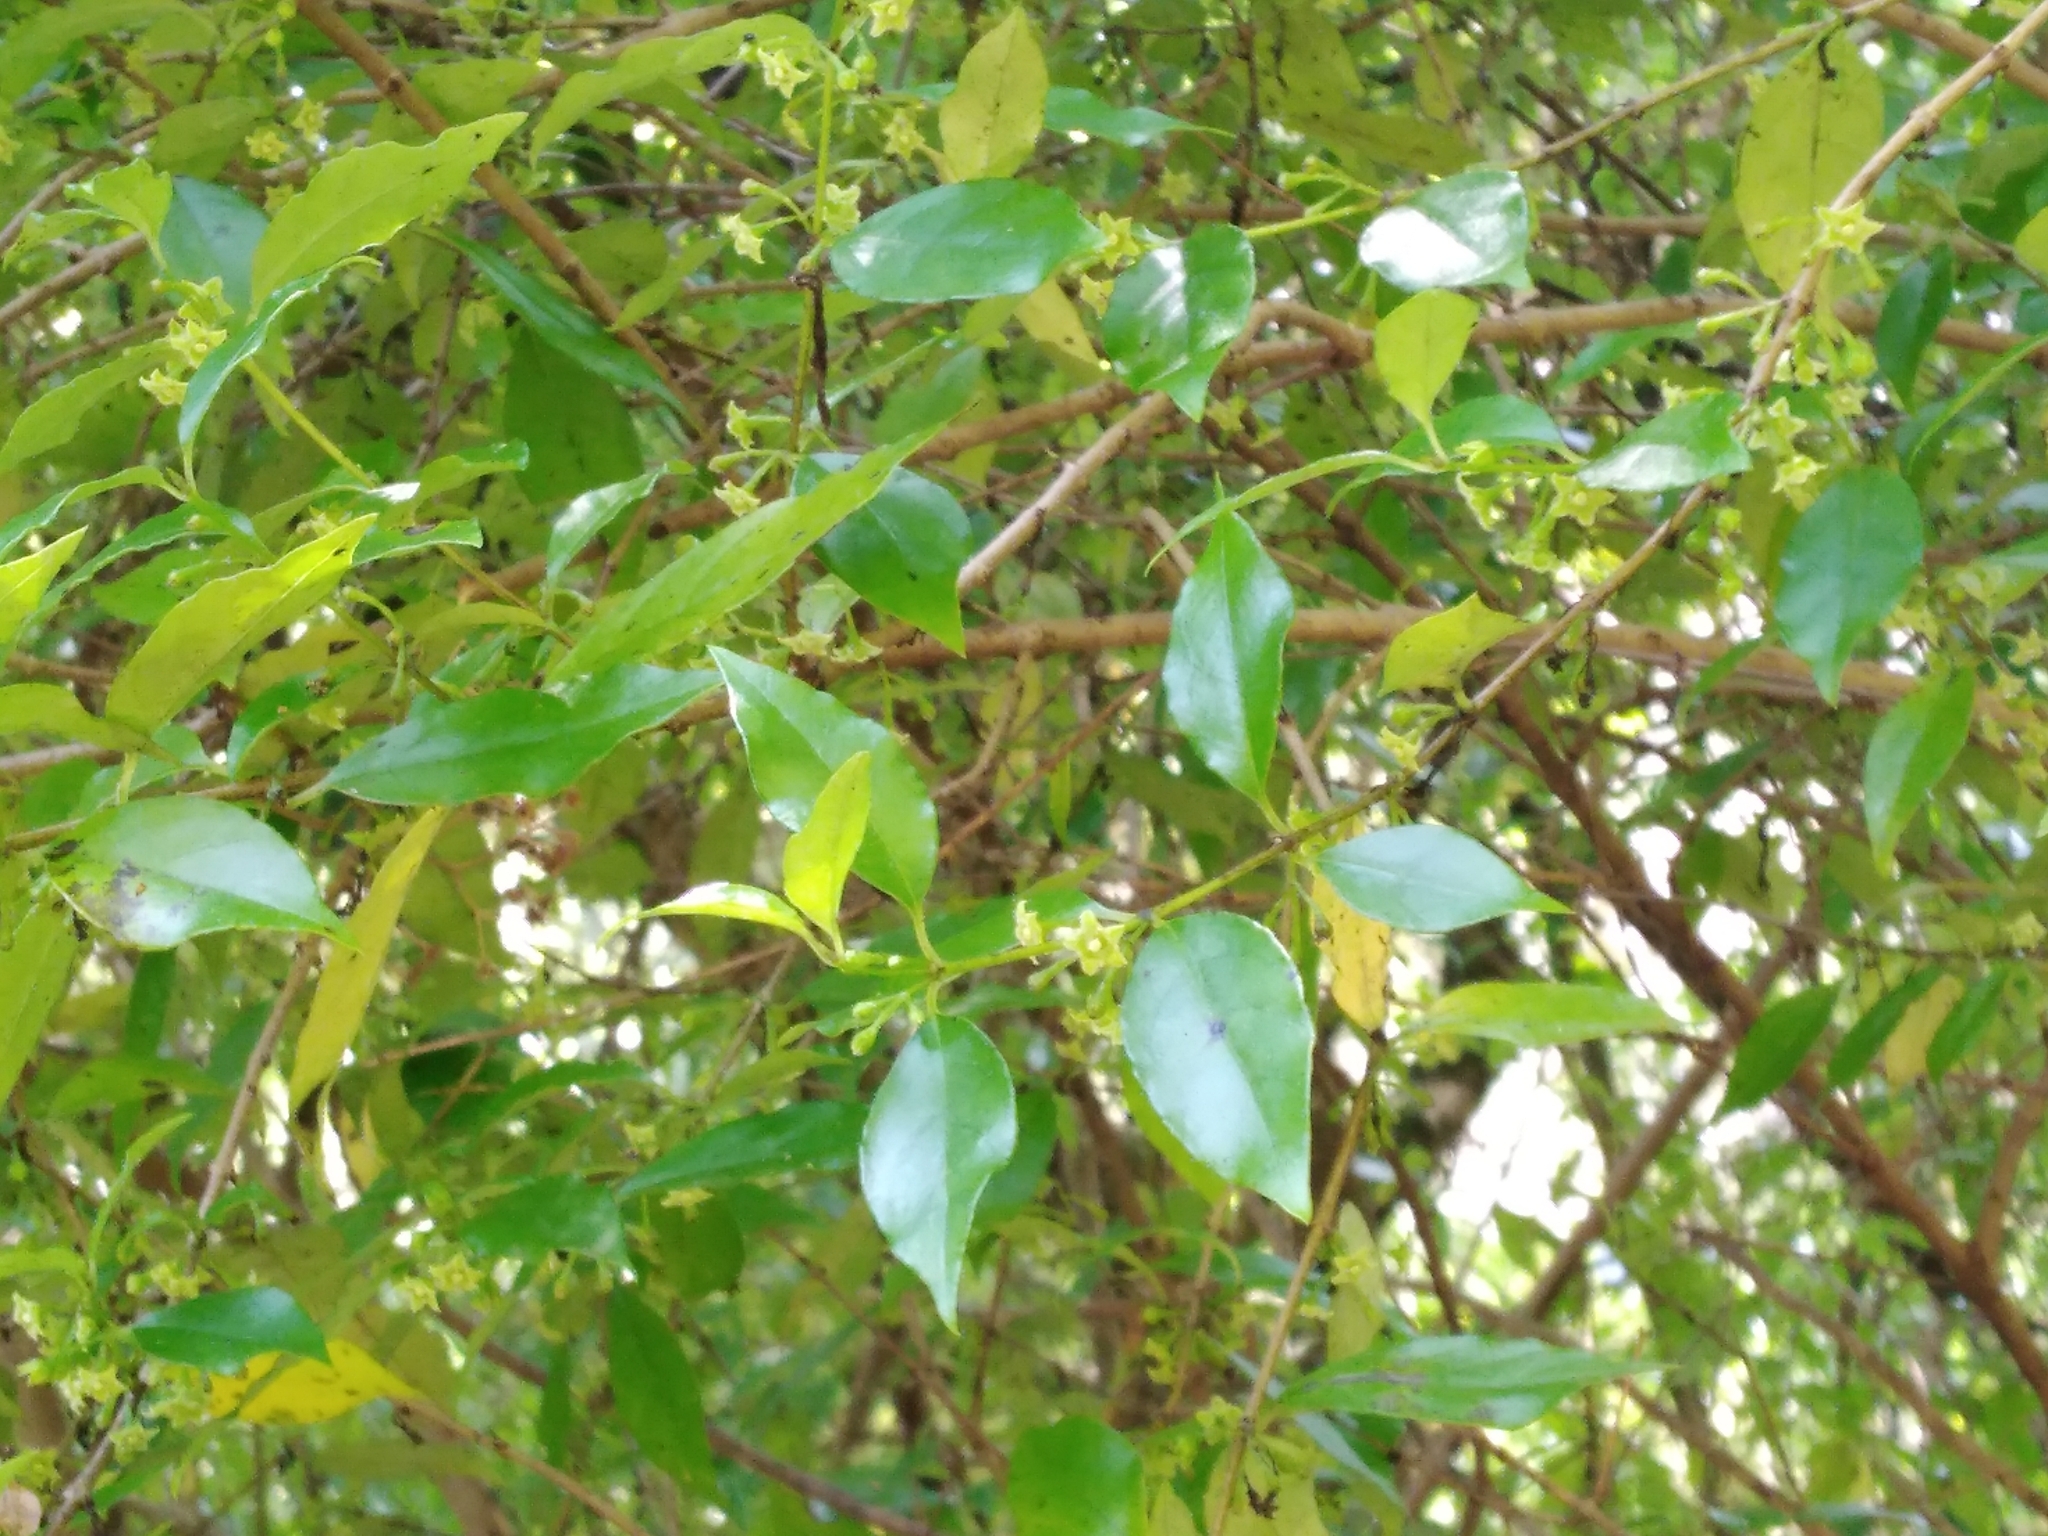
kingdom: Plantae
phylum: Tracheophyta
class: Magnoliopsida
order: Gentianales
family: Loganiaceae
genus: Geniostoma
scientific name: Geniostoma ligustrifolium
